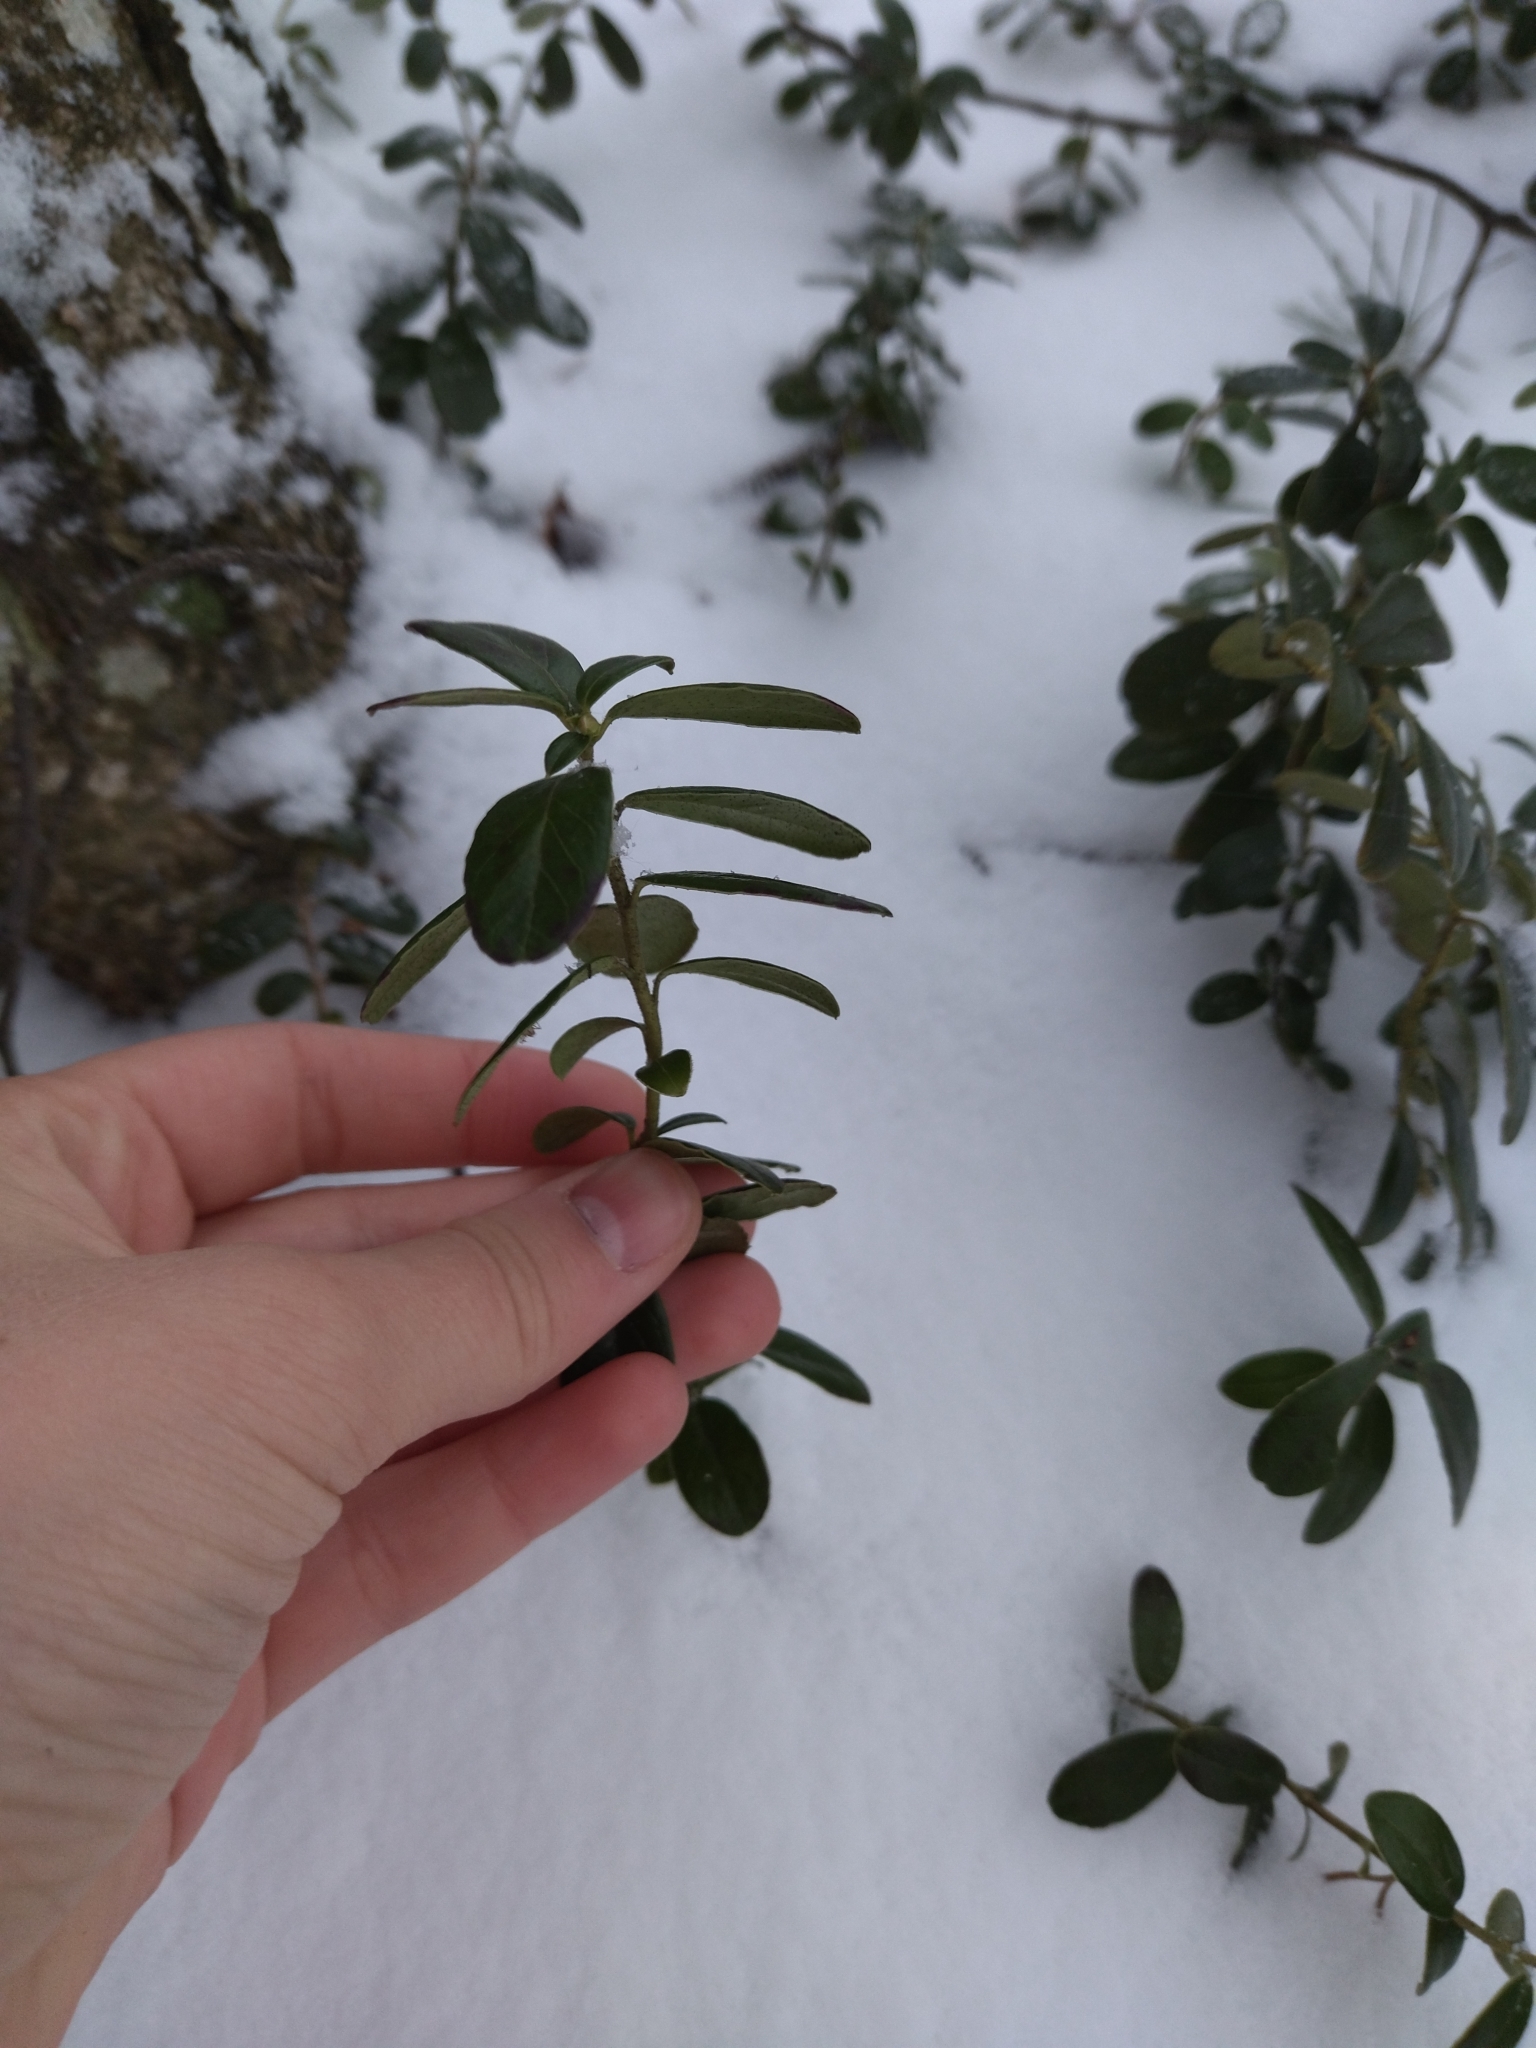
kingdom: Plantae
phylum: Tracheophyta
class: Magnoliopsida
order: Ericales
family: Ericaceae
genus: Vaccinium
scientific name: Vaccinium vitis-idaea
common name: Cowberry
